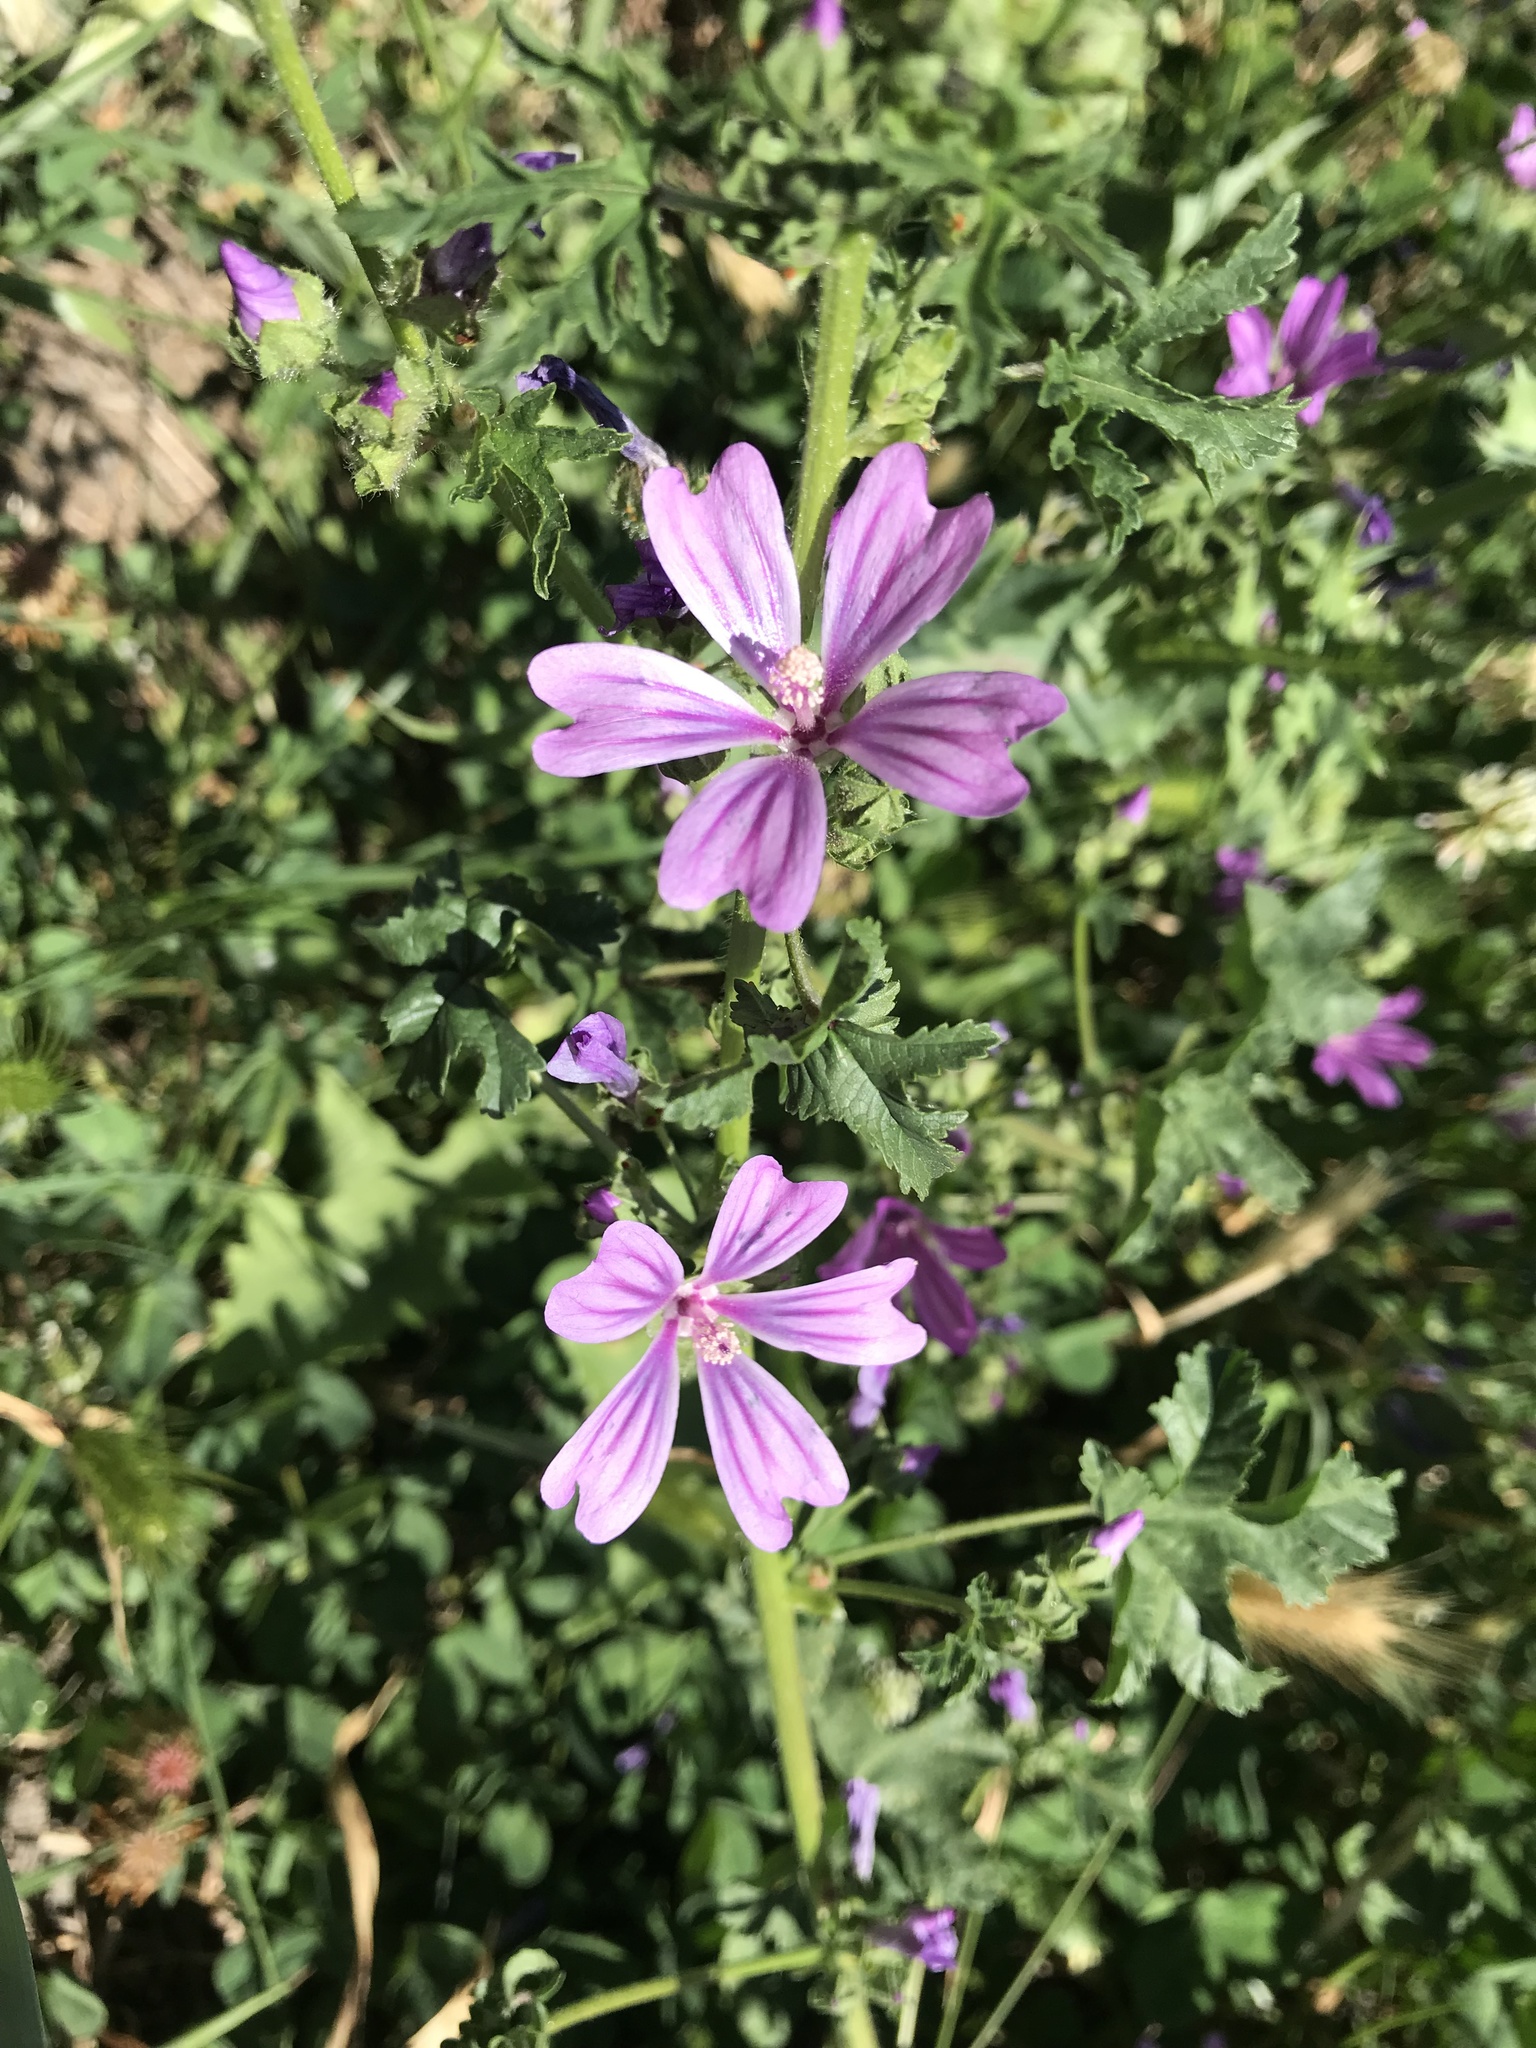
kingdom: Plantae
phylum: Tracheophyta
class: Magnoliopsida
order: Malvales
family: Malvaceae
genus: Malva
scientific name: Malva sylvestris
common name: Common mallow
